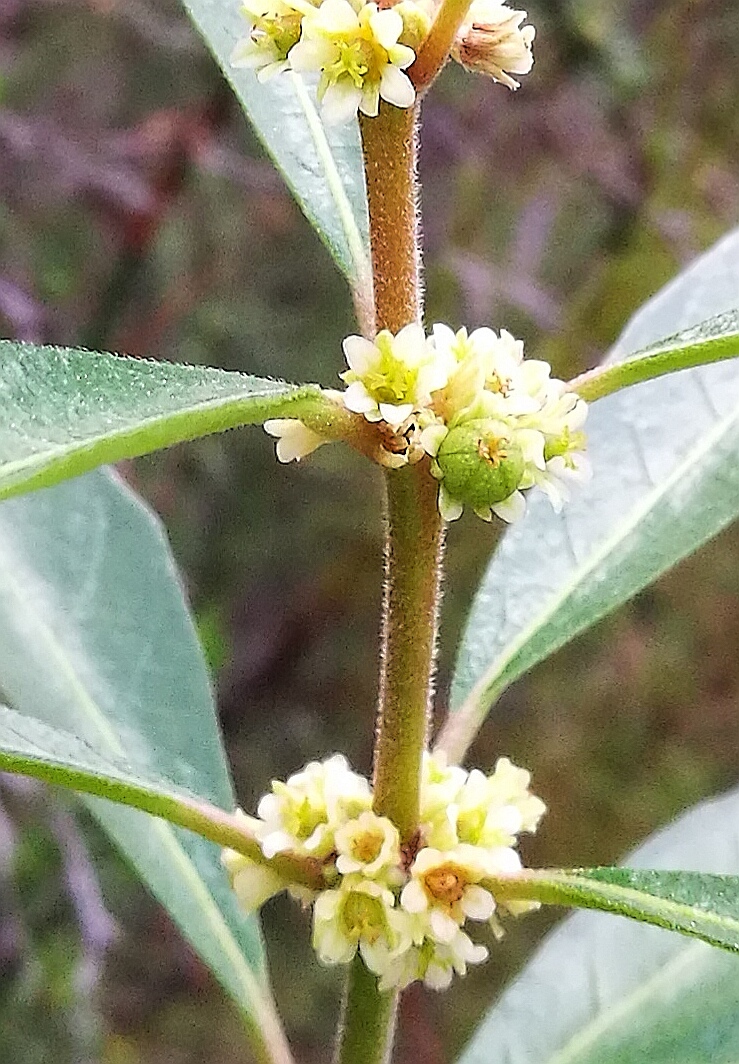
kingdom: Plantae
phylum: Tracheophyta
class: Magnoliopsida
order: Malpighiales
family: Peraceae
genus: Clutia
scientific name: Clutia affinis
